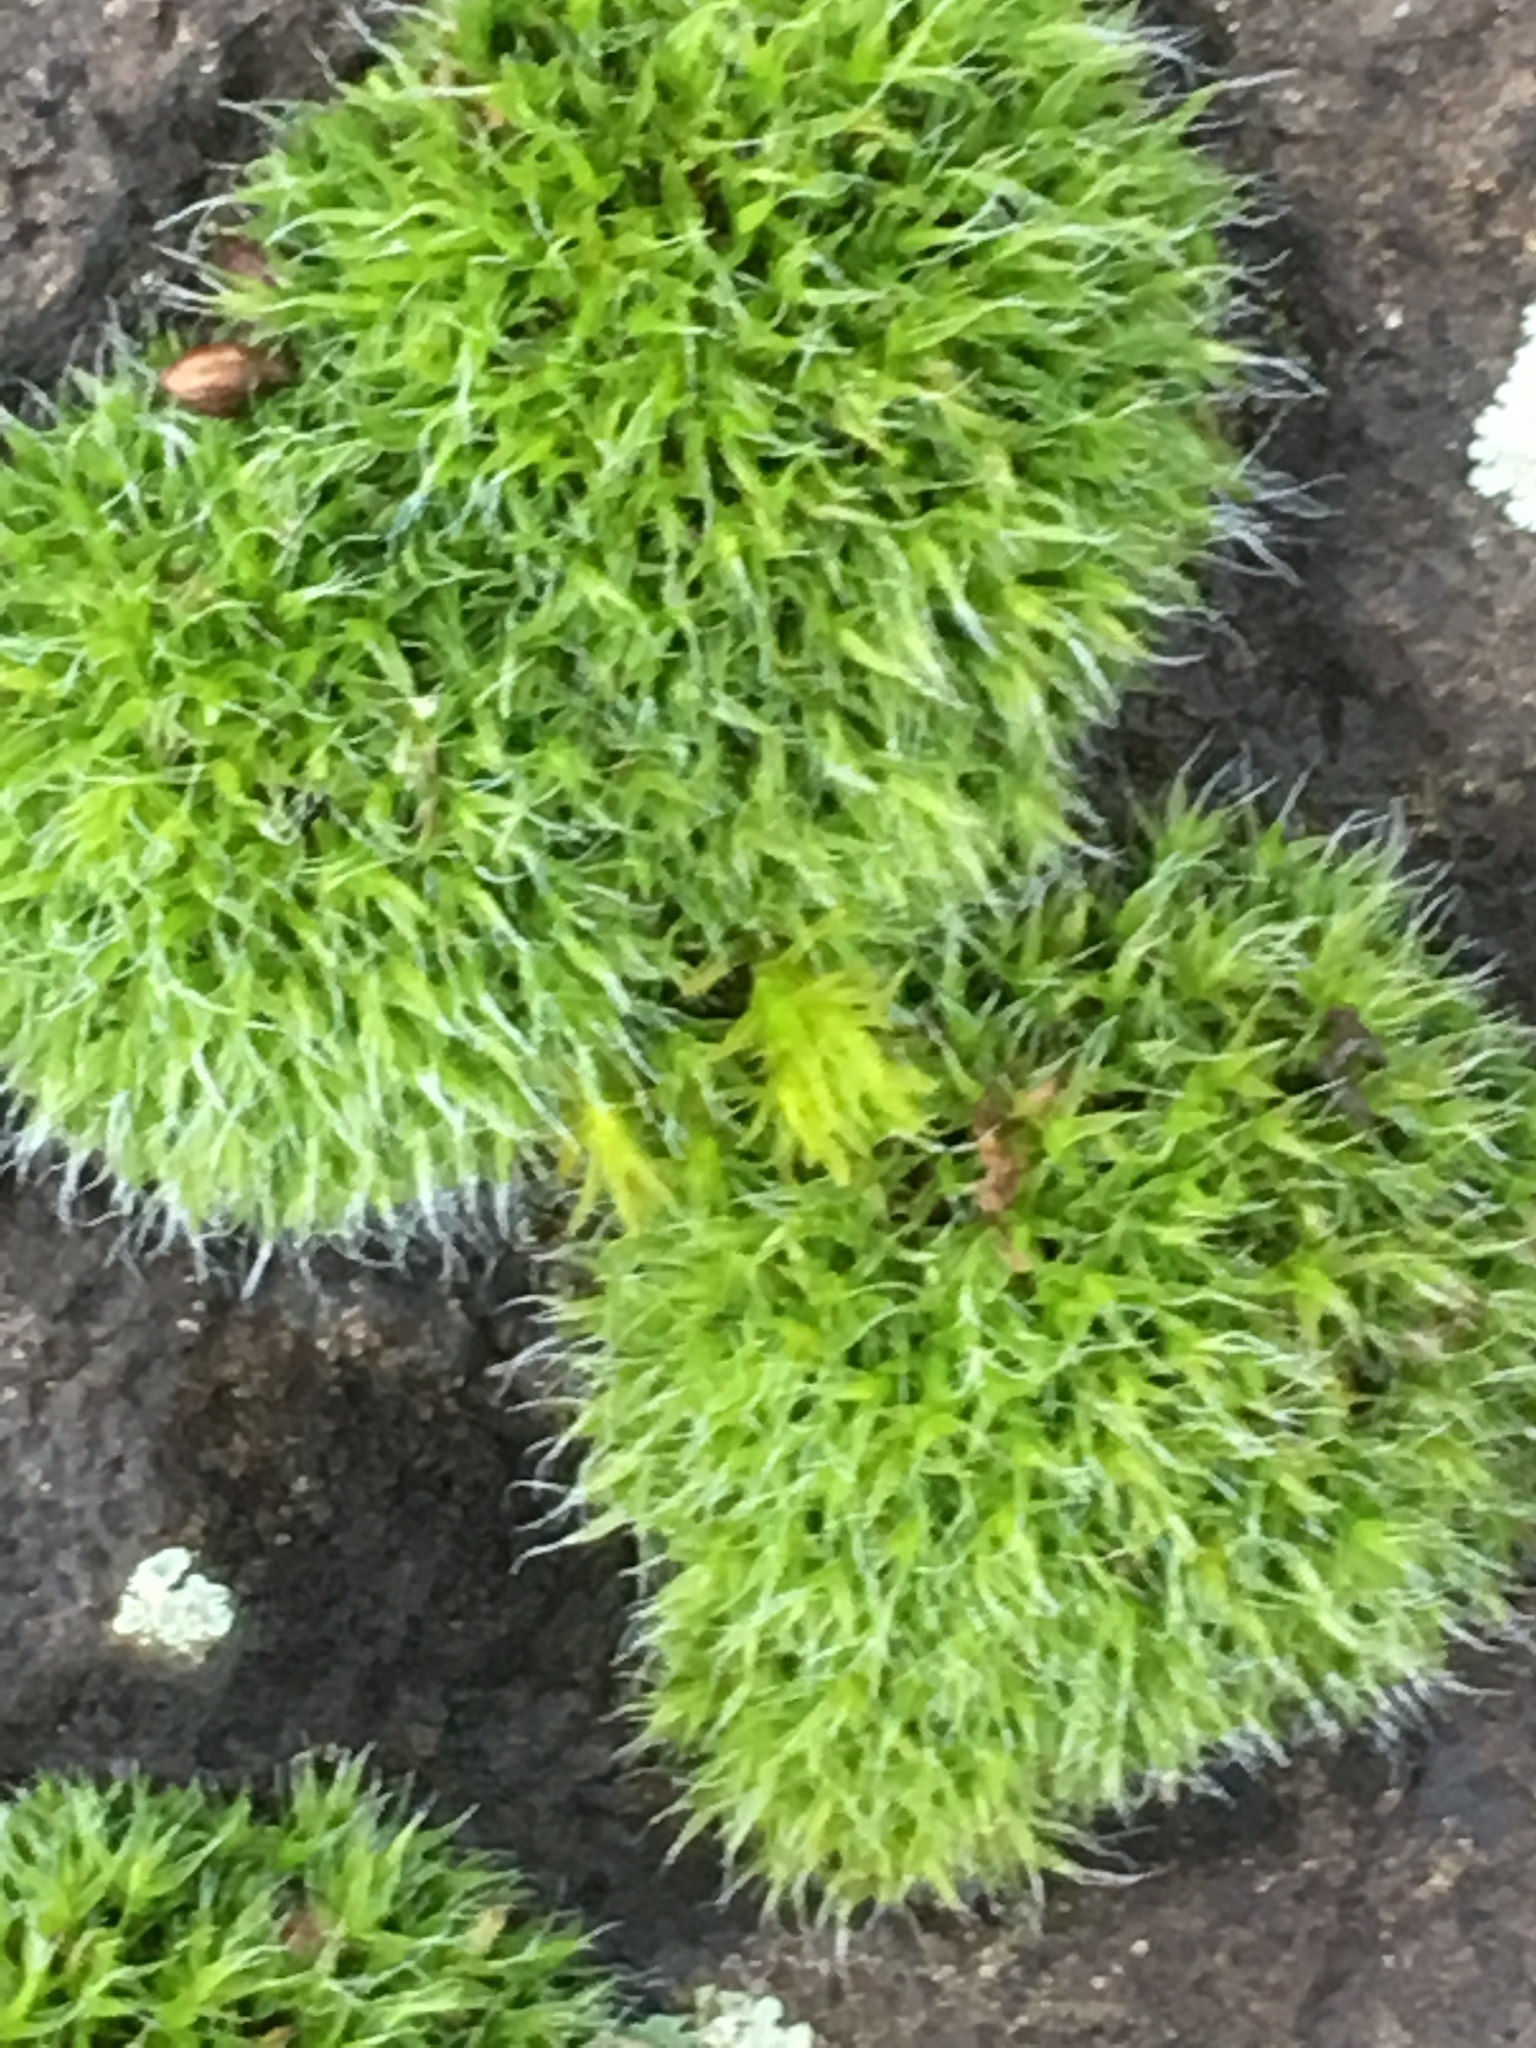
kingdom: Plantae
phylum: Bryophyta
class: Bryopsida
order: Grimmiales
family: Grimmiaceae
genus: Grimmia
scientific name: Grimmia pulvinata
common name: Grey-cushioned grimmia
